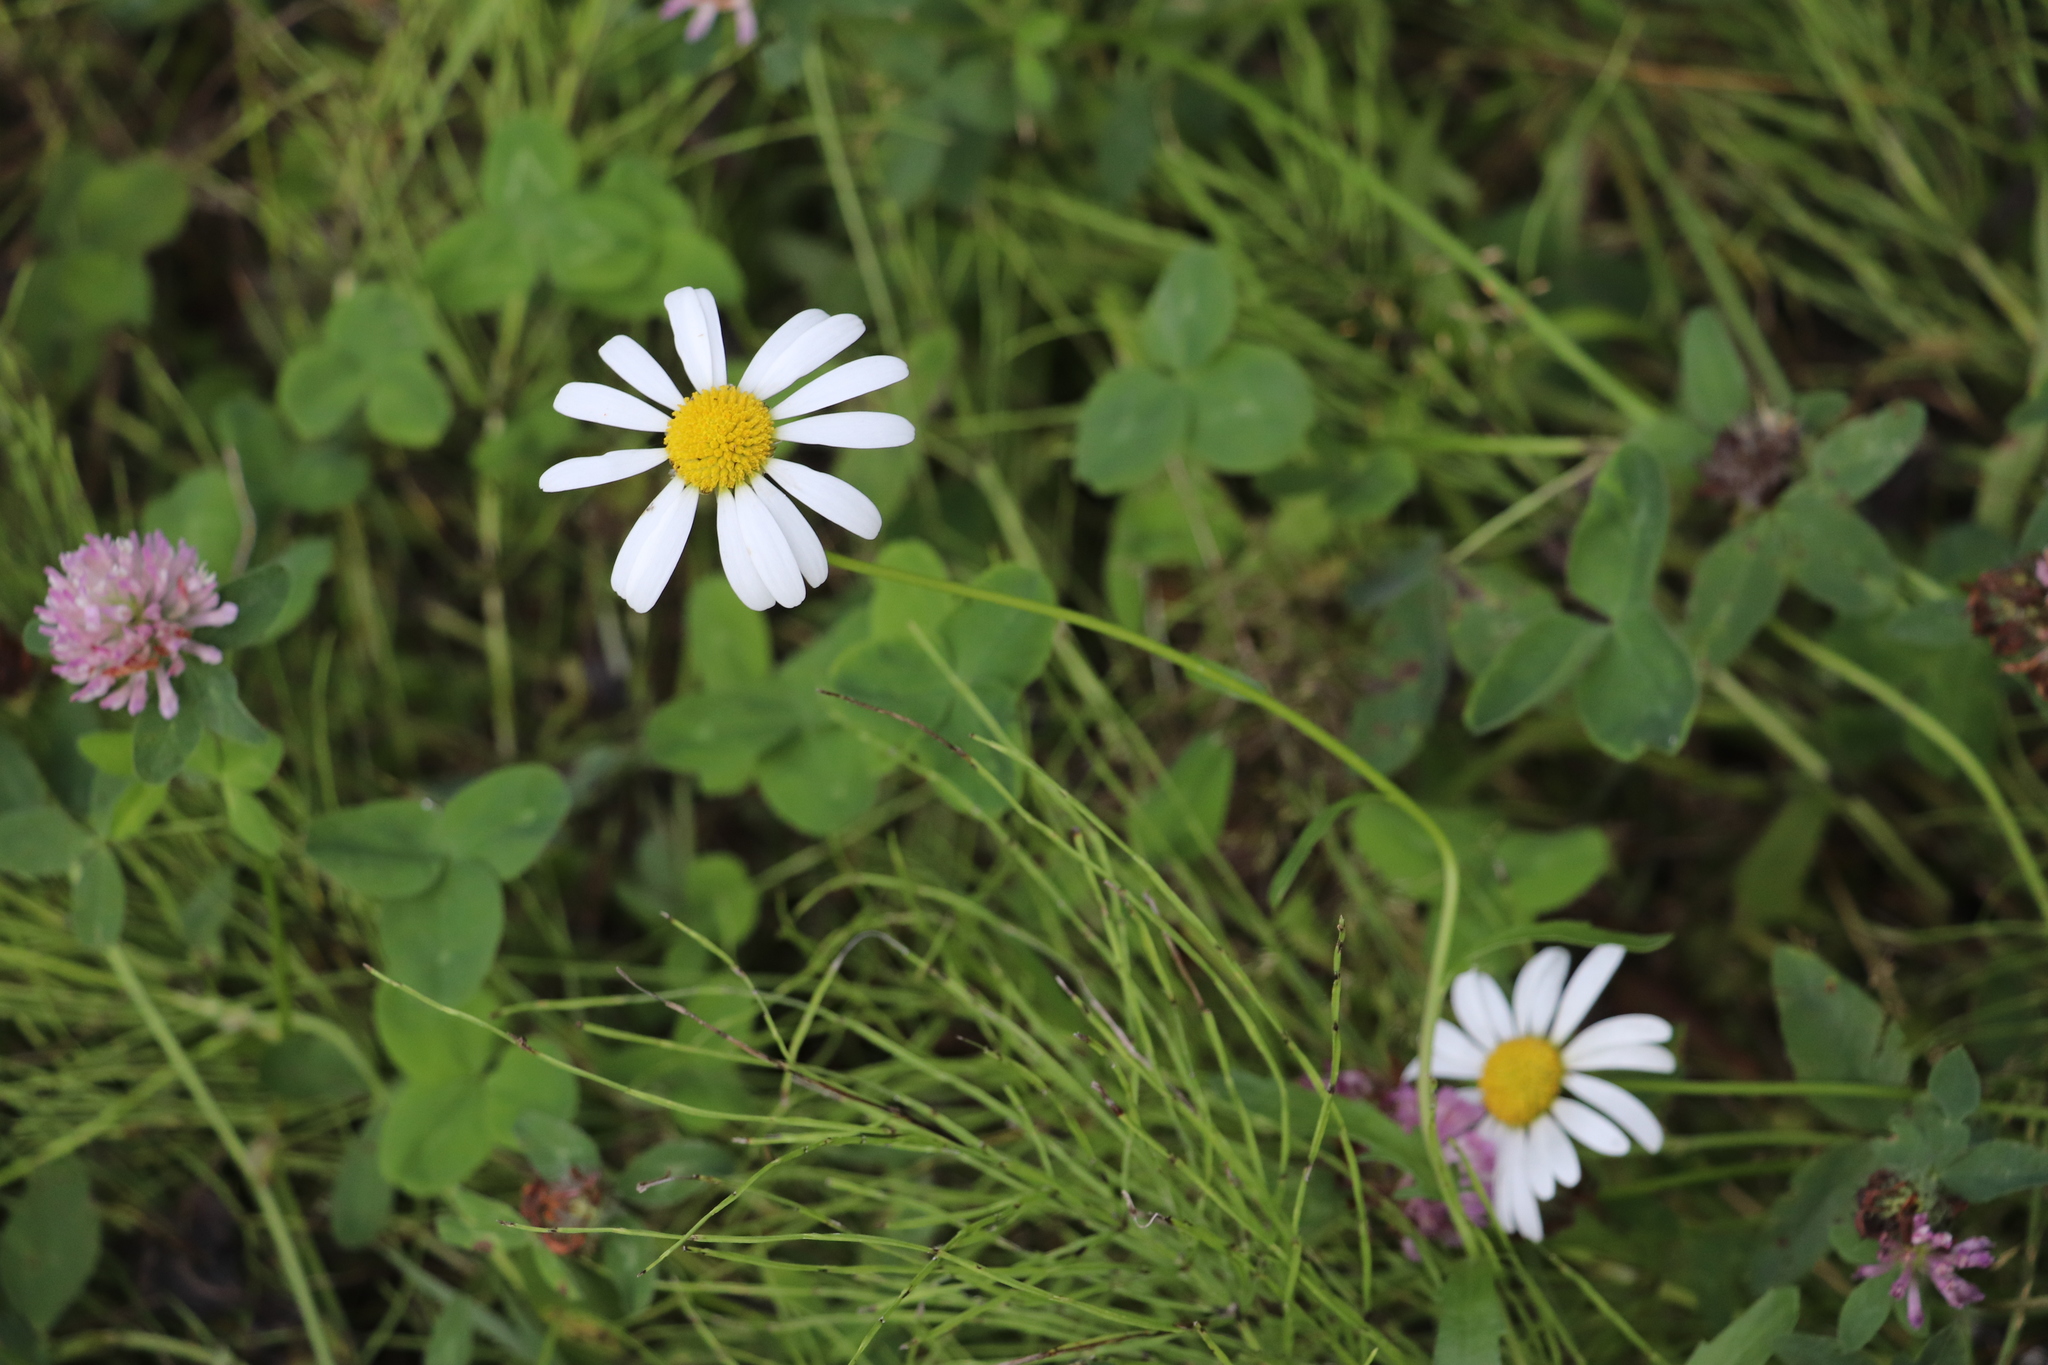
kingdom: Plantae
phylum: Tracheophyta
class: Magnoliopsida
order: Asterales
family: Asteraceae
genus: Leucanthemum
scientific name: Leucanthemum ircutianum
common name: Daisy
